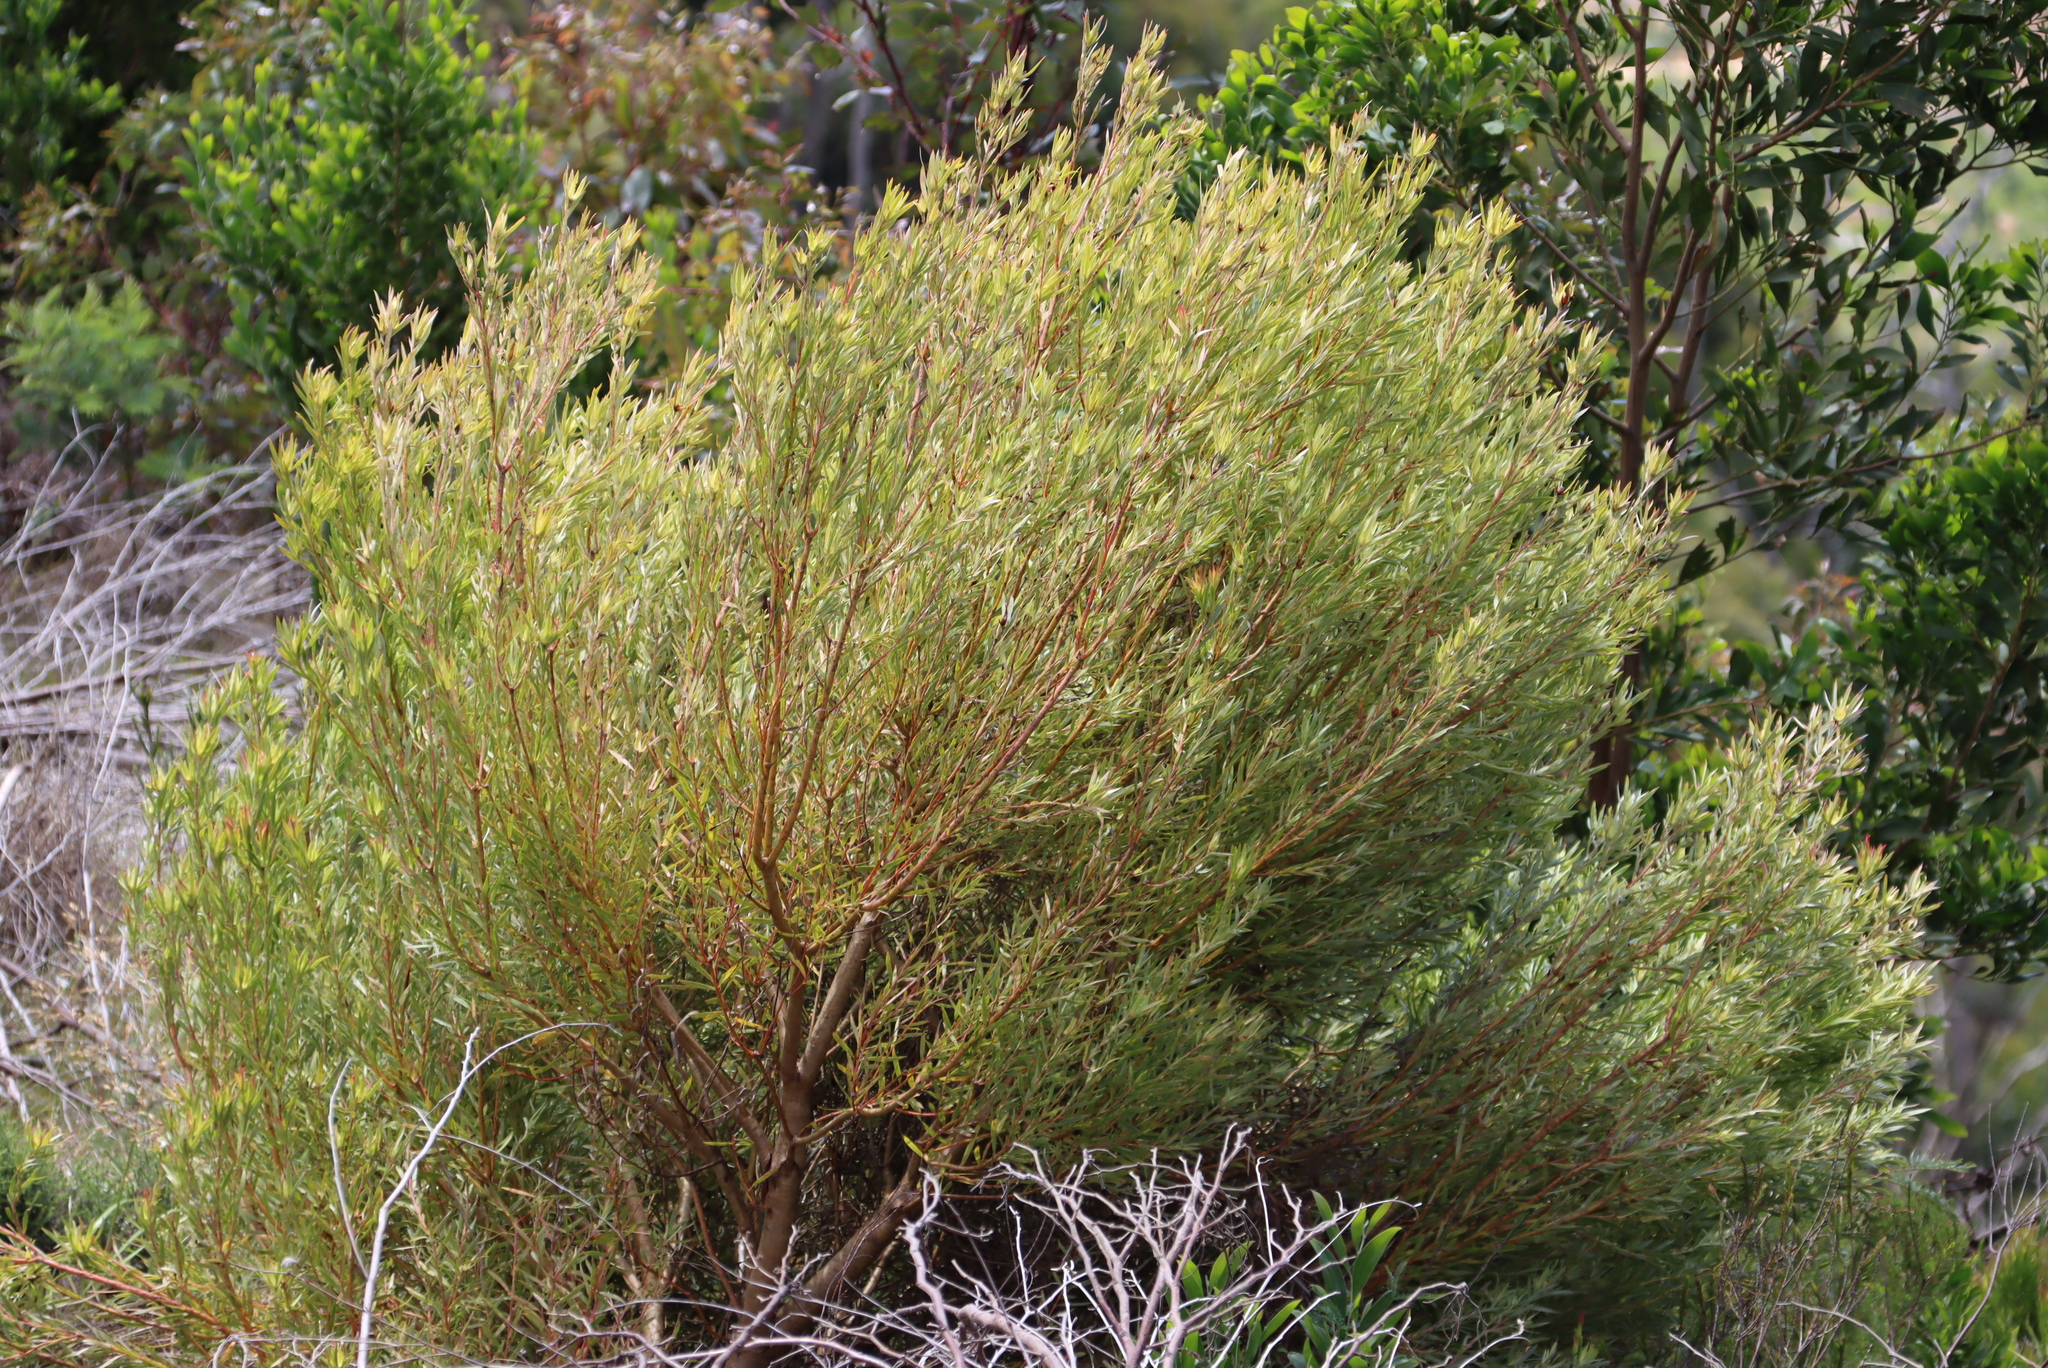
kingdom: Plantae
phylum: Tracheophyta
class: Magnoliopsida
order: Proteales
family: Proteaceae
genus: Leucadendron
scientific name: Leucadendron xanthoconus
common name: Sickle-leaf conebush
